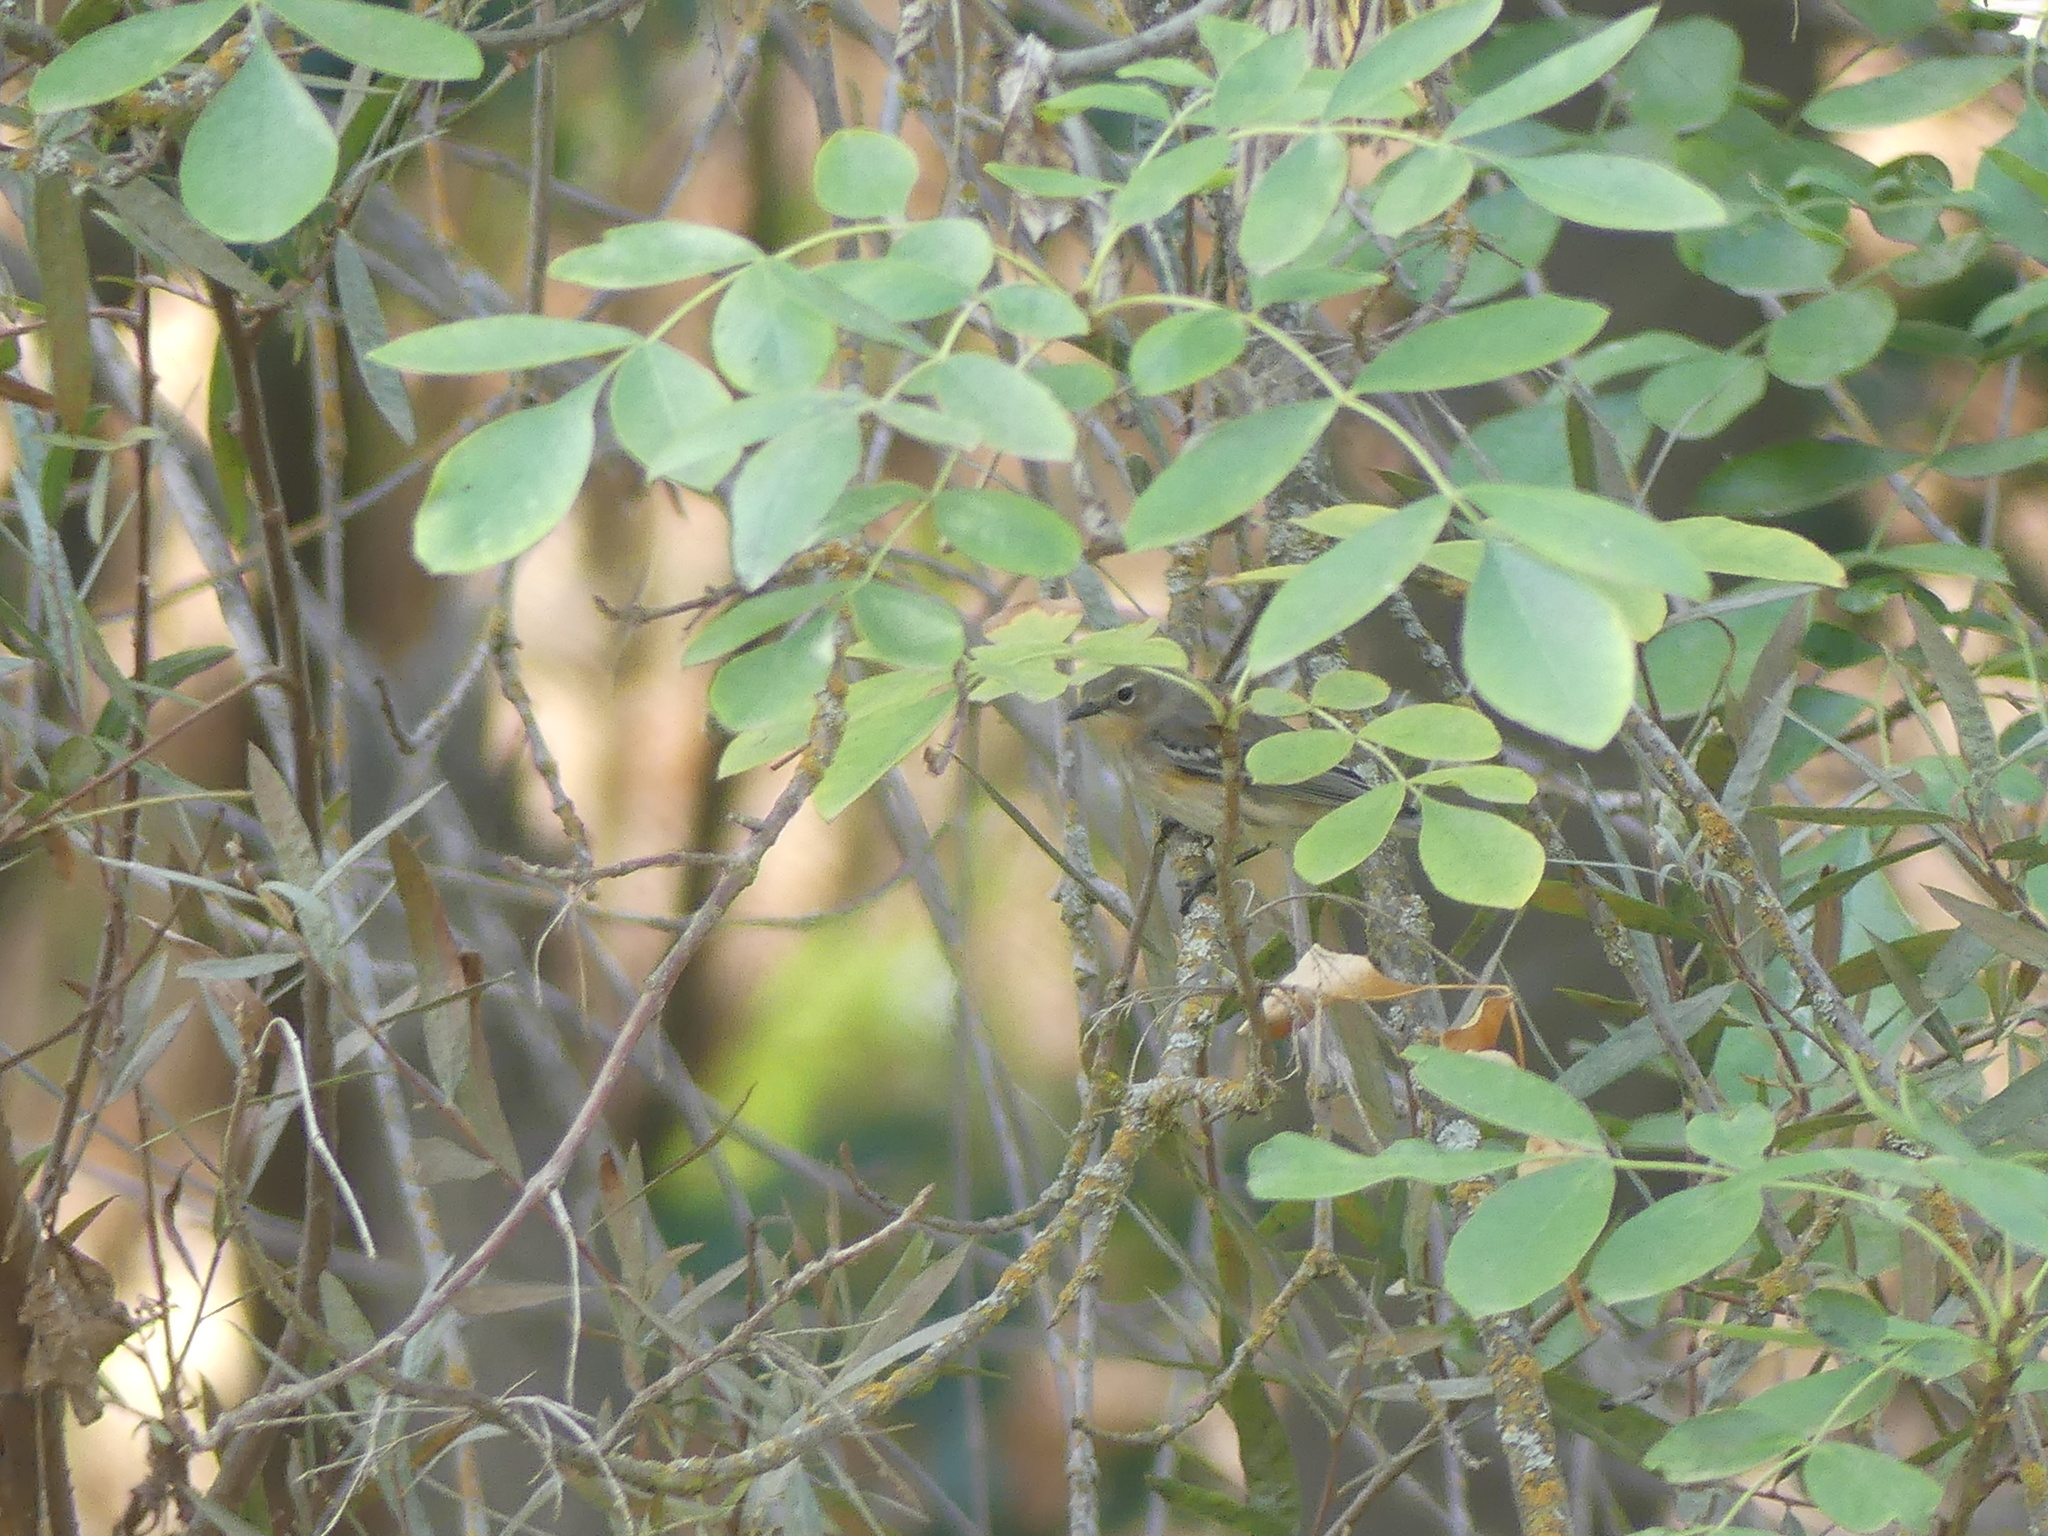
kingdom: Animalia
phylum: Chordata
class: Aves
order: Passeriformes
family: Parulidae
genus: Setophaga
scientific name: Setophaga coronata
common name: Myrtle warbler
